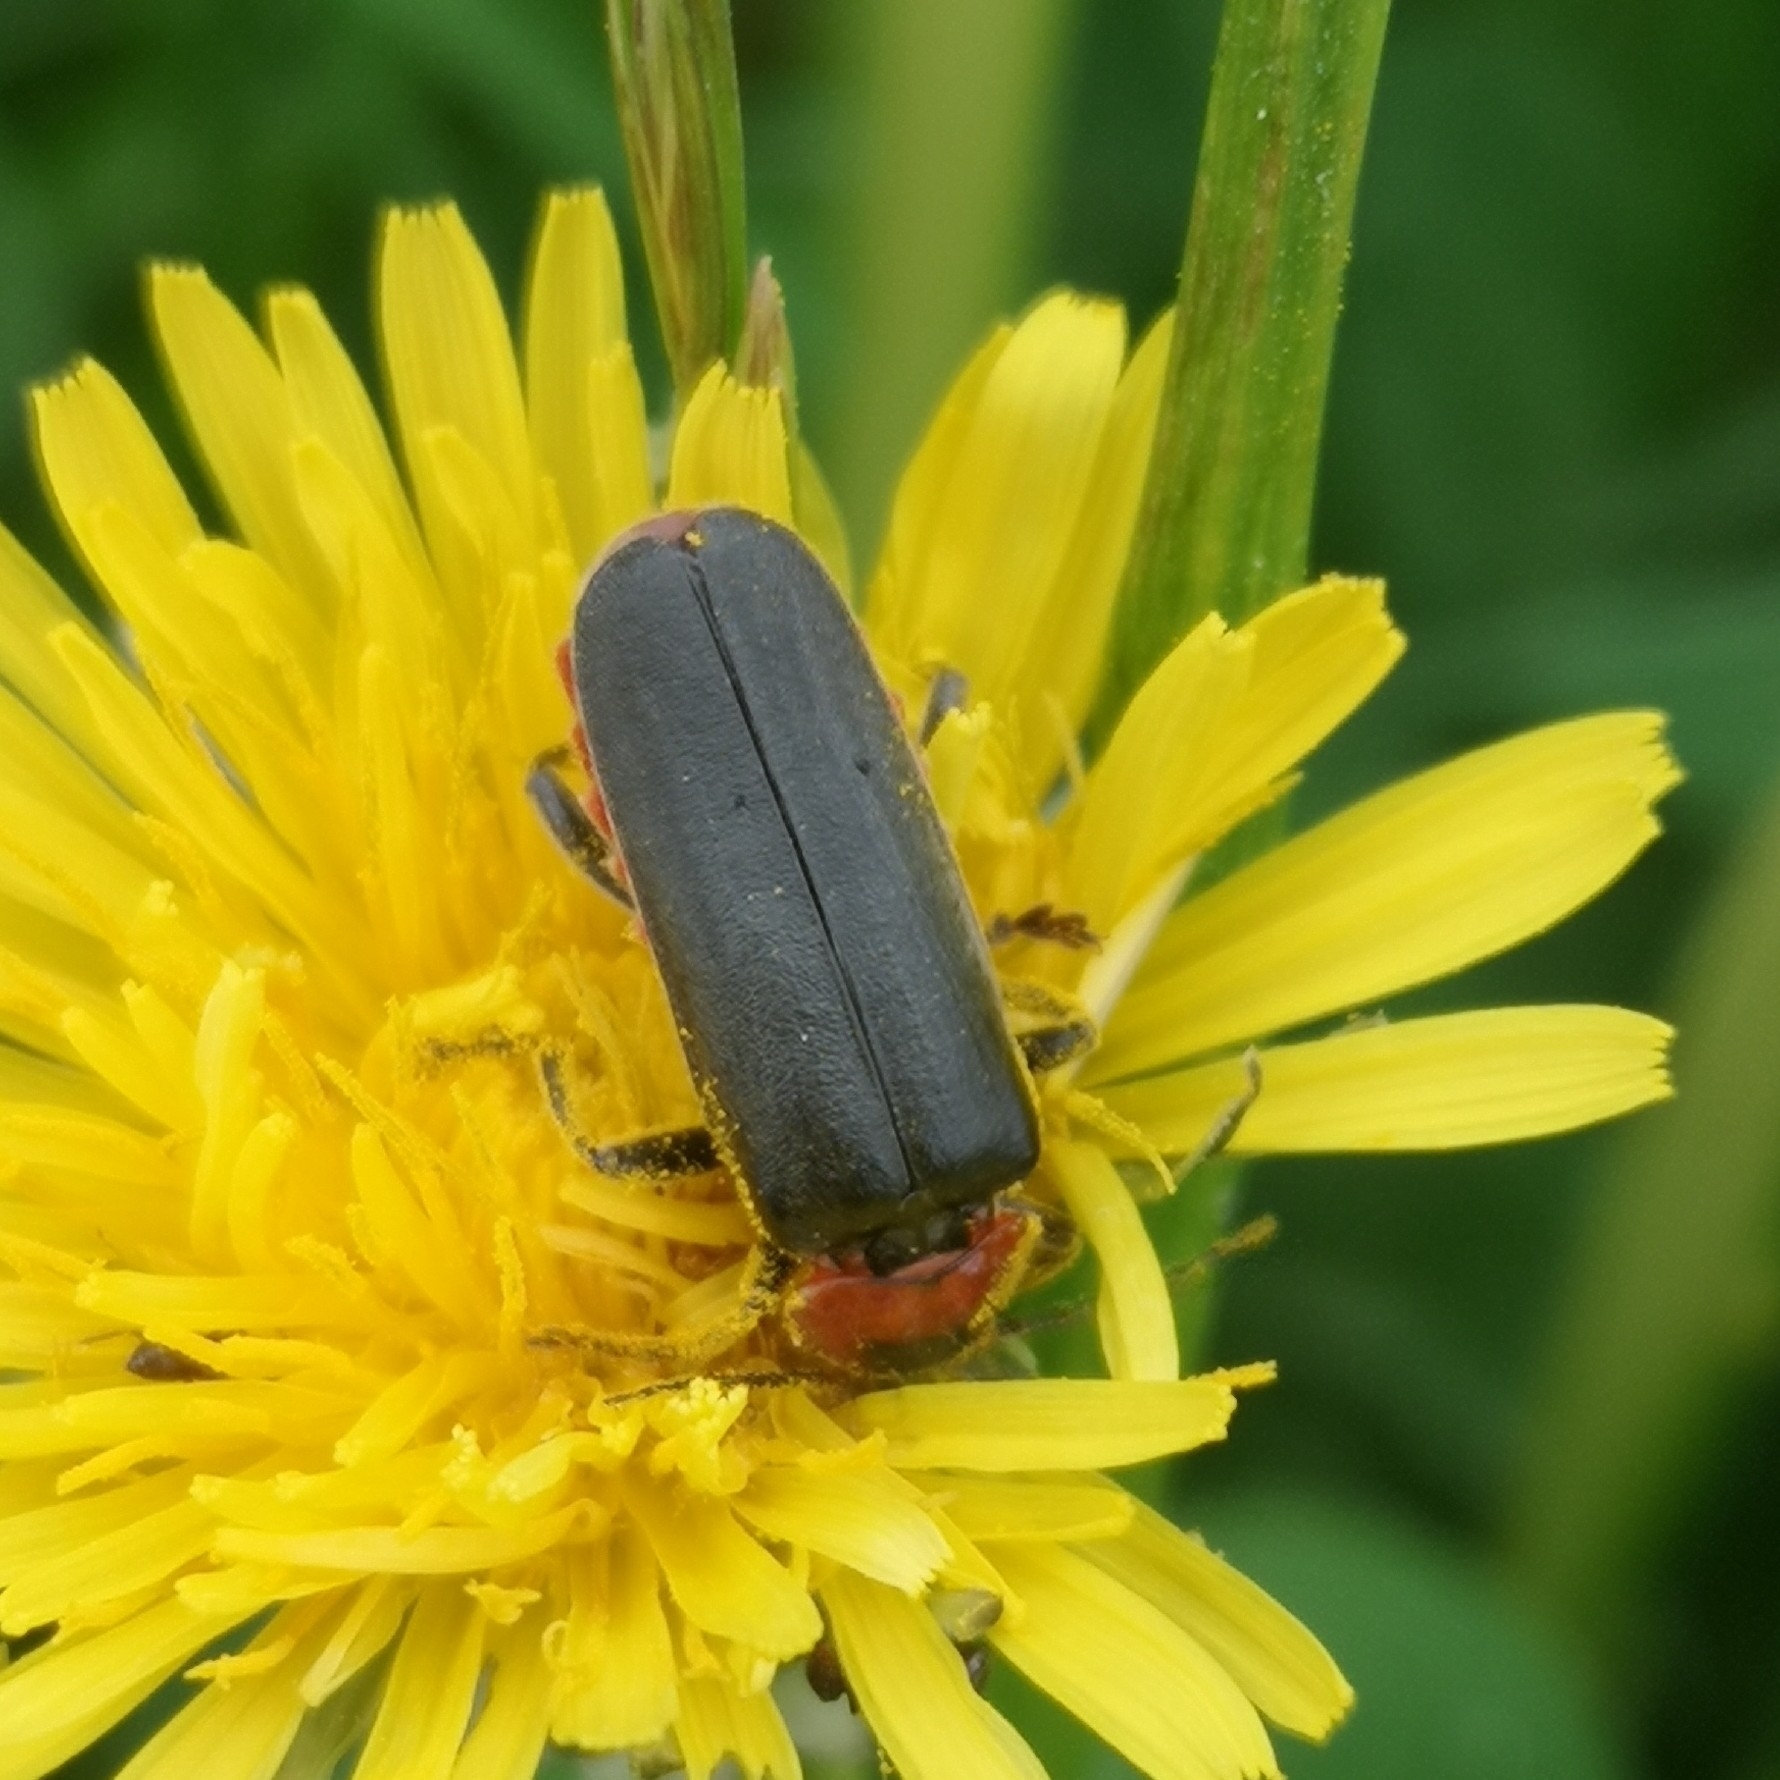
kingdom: Animalia
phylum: Arthropoda
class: Insecta
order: Coleoptera
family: Cantharidae
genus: Cantharis
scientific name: Cantharis fusca
